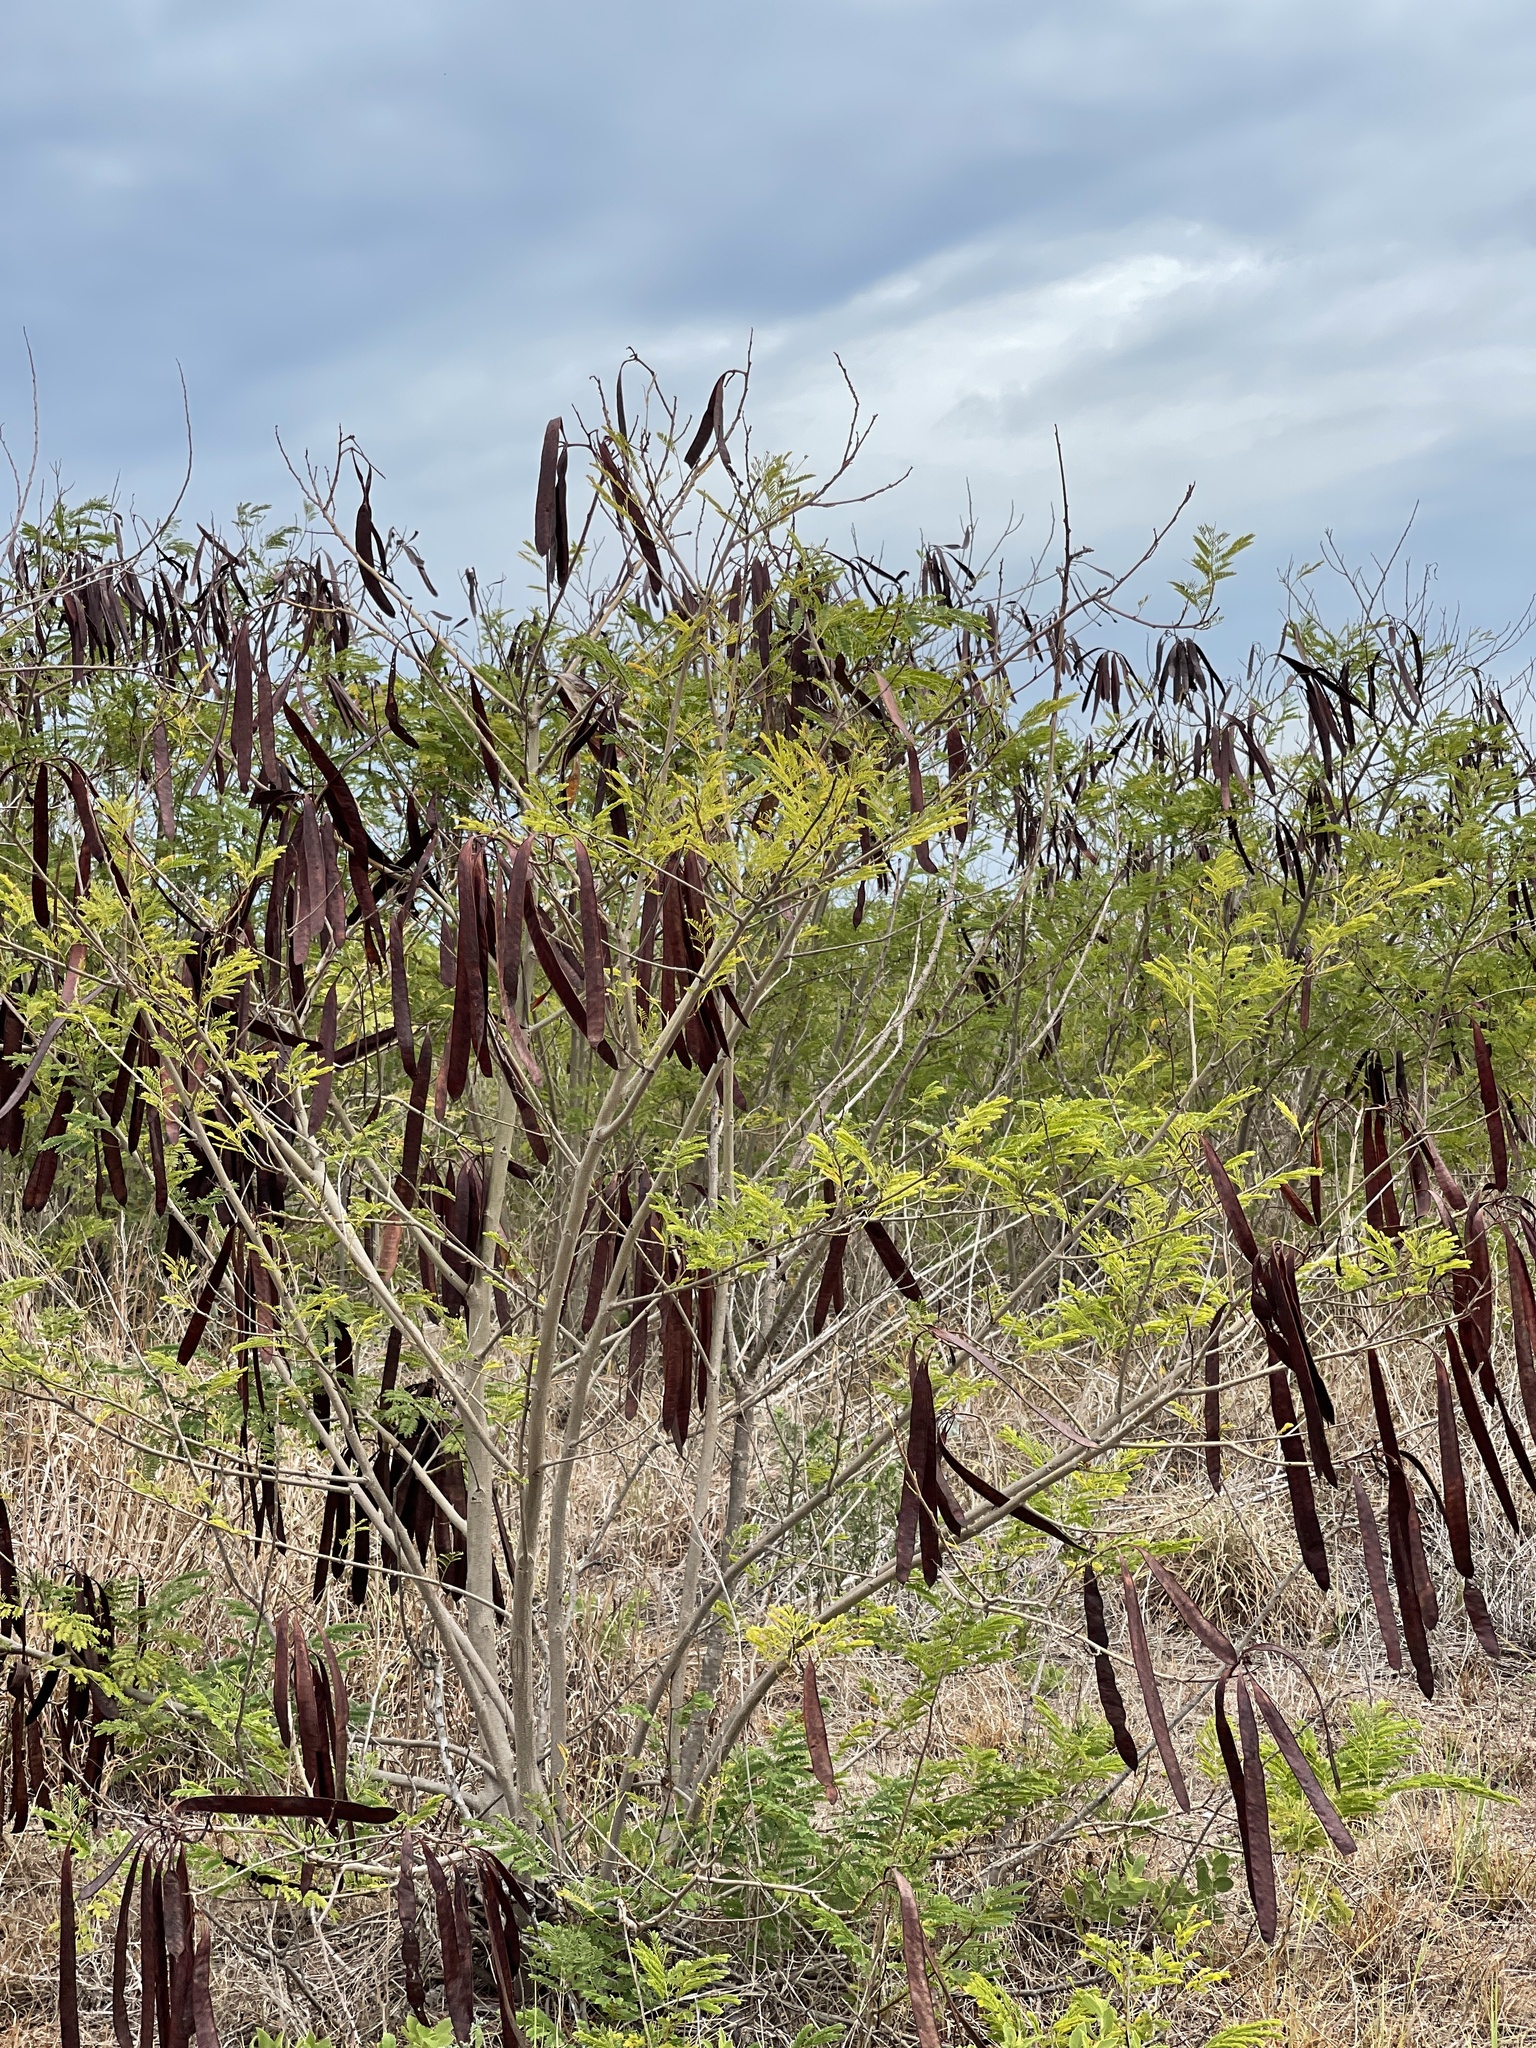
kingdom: Plantae
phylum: Tracheophyta
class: Magnoliopsida
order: Fabales
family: Fabaceae
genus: Leucaena
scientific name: Leucaena leucocephala
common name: White leadtree
